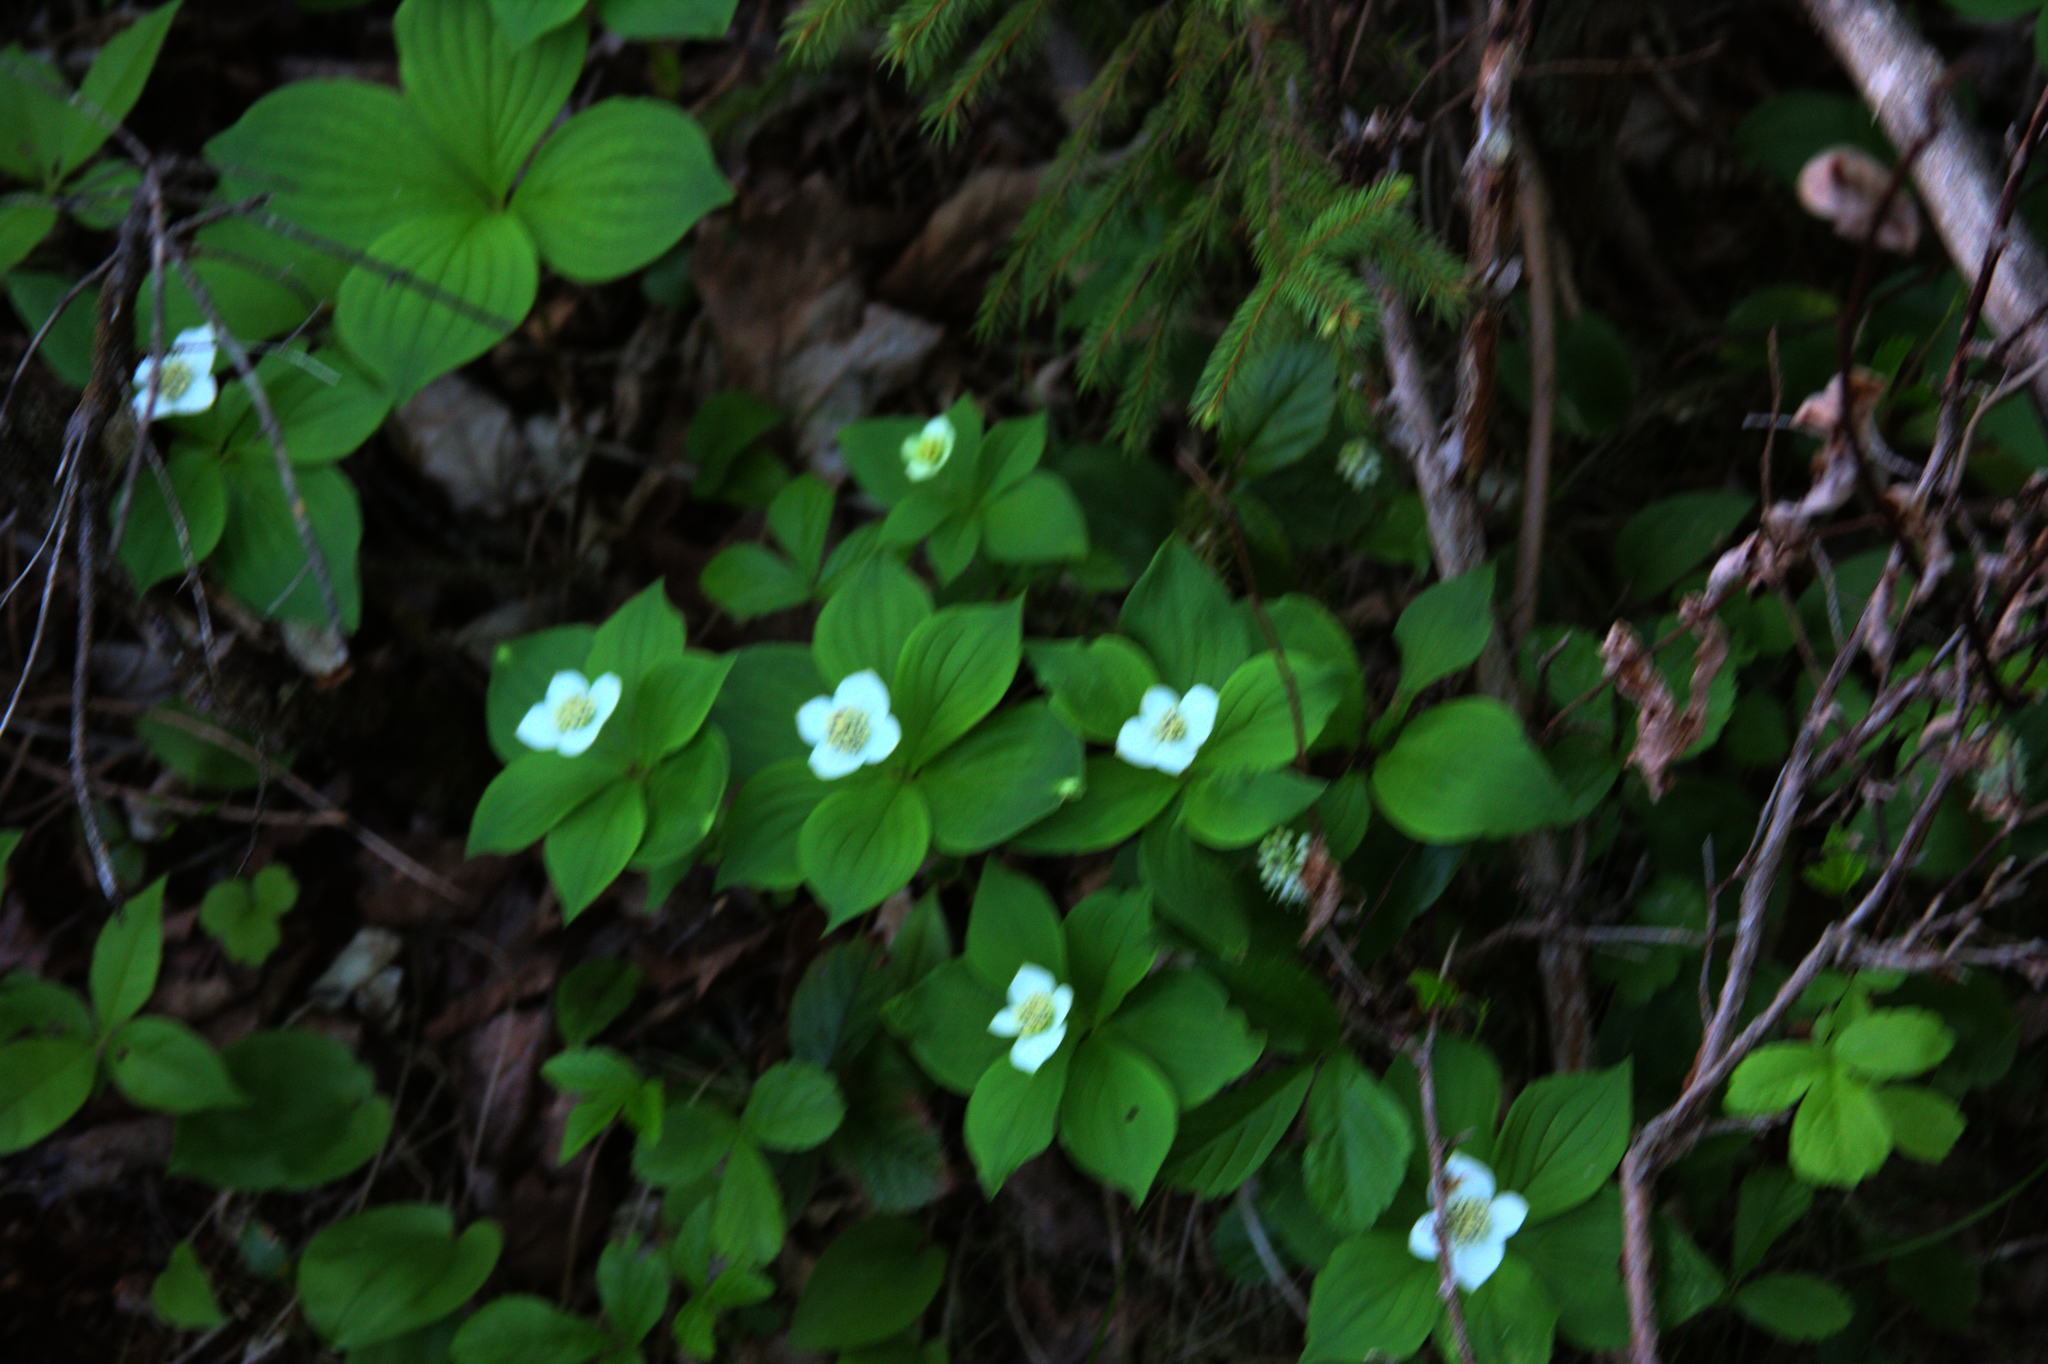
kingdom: Plantae
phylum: Tracheophyta
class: Magnoliopsida
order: Cornales
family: Cornaceae
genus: Cornus
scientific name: Cornus canadensis
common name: Creeping dogwood
